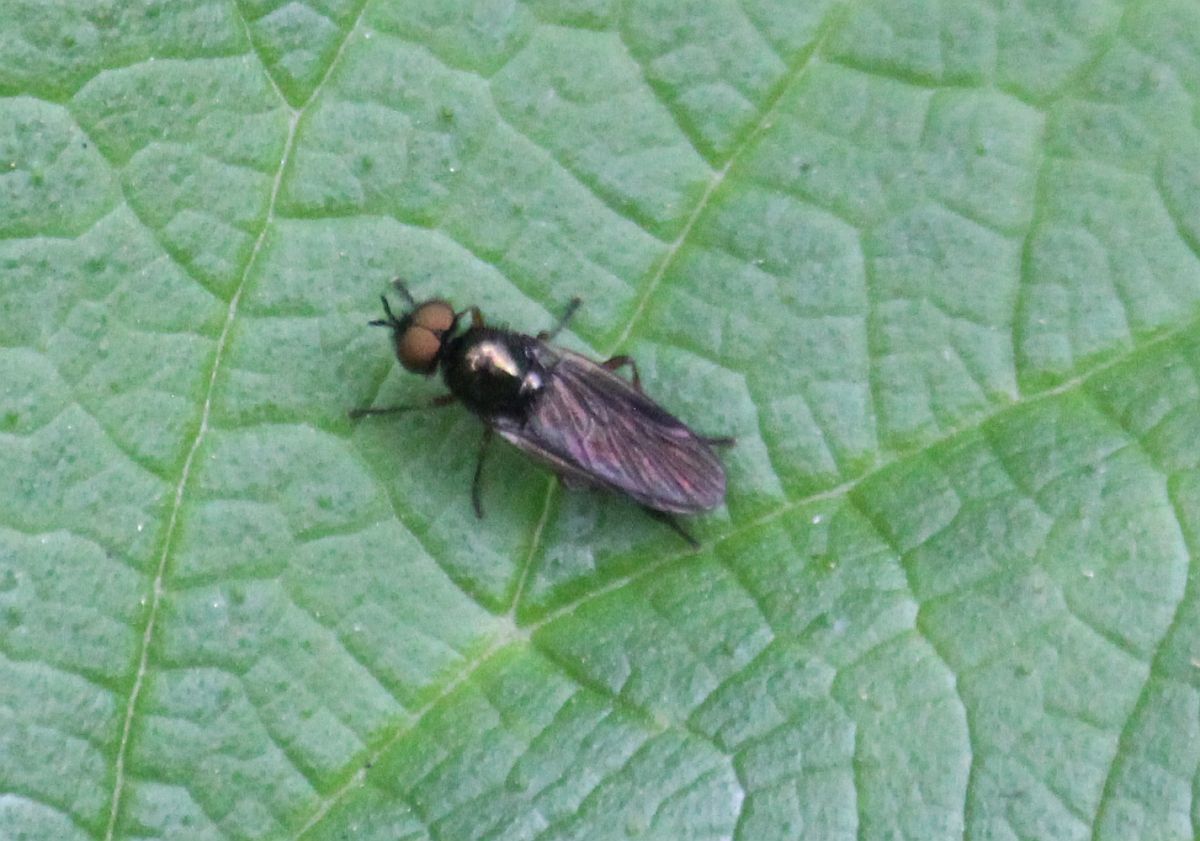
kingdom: Animalia
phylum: Arthropoda
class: Insecta
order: Diptera
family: Stratiomyidae
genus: Beris
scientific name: Beris chalybata
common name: Murky-legged black legionnaire
